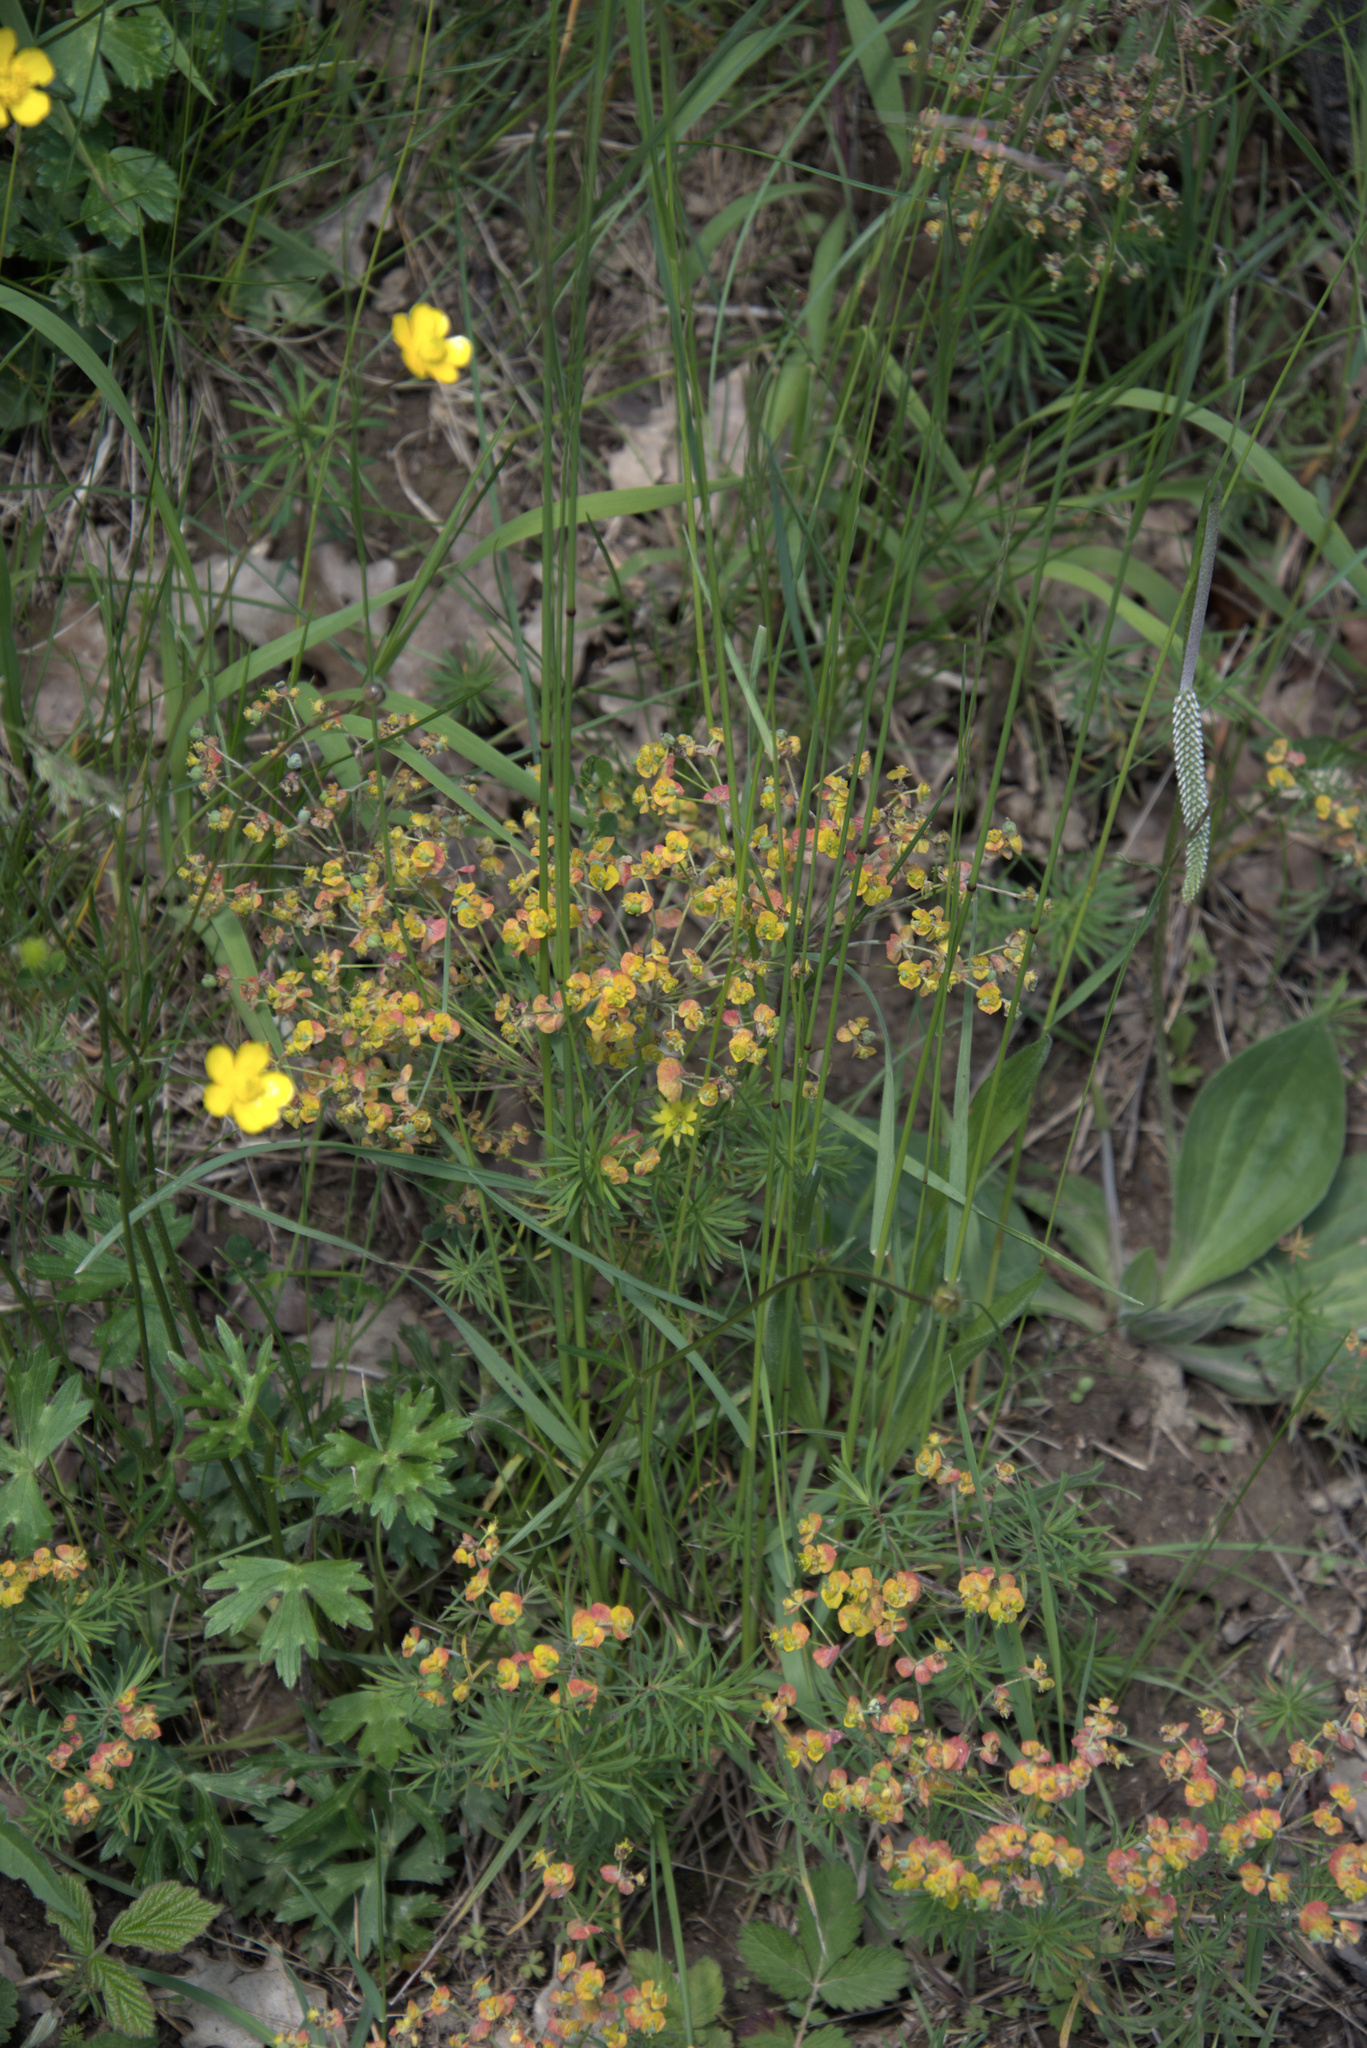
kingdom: Plantae
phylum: Tracheophyta
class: Magnoliopsida
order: Malpighiales
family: Euphorbiaceae
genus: Euphorbia
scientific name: Euphorbia cyparissias
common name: Cypress spurge
